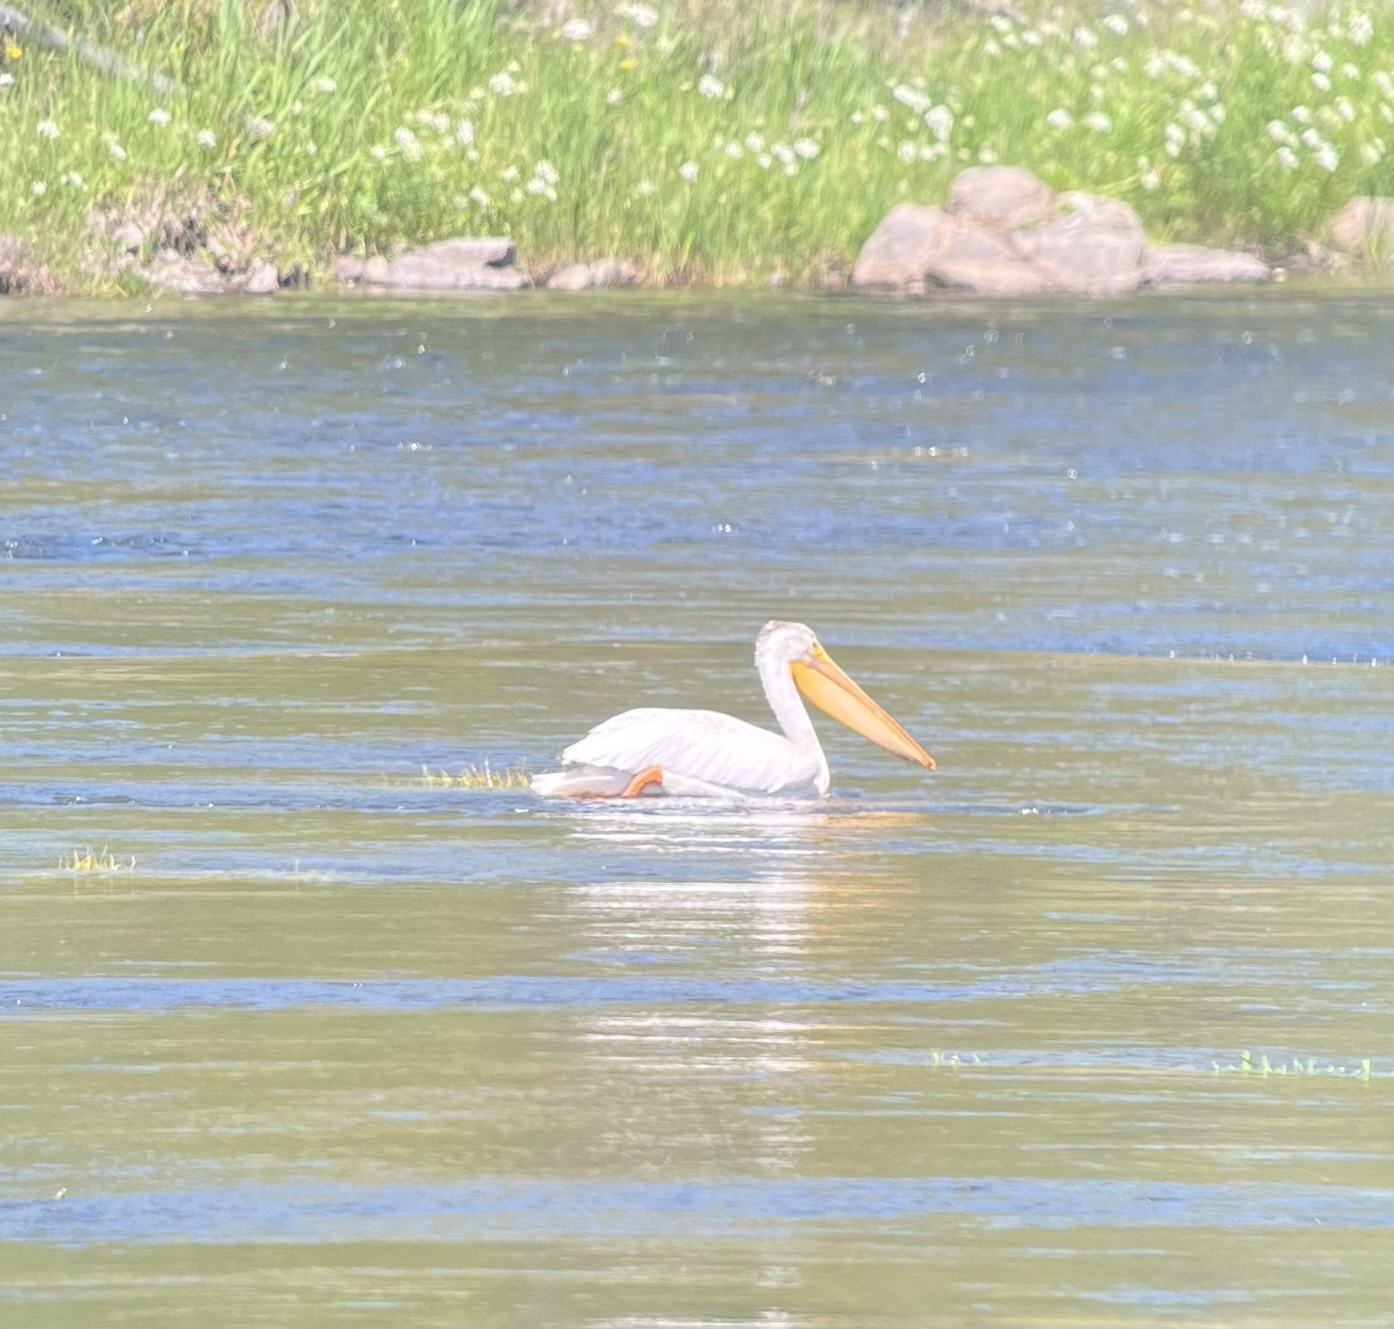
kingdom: Animalia
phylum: Chordata
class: Aves
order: Pelecaniformes
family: Pelecanidae
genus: Pelecanus
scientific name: Pelecanus erythrorhynchos
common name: American white pelican
